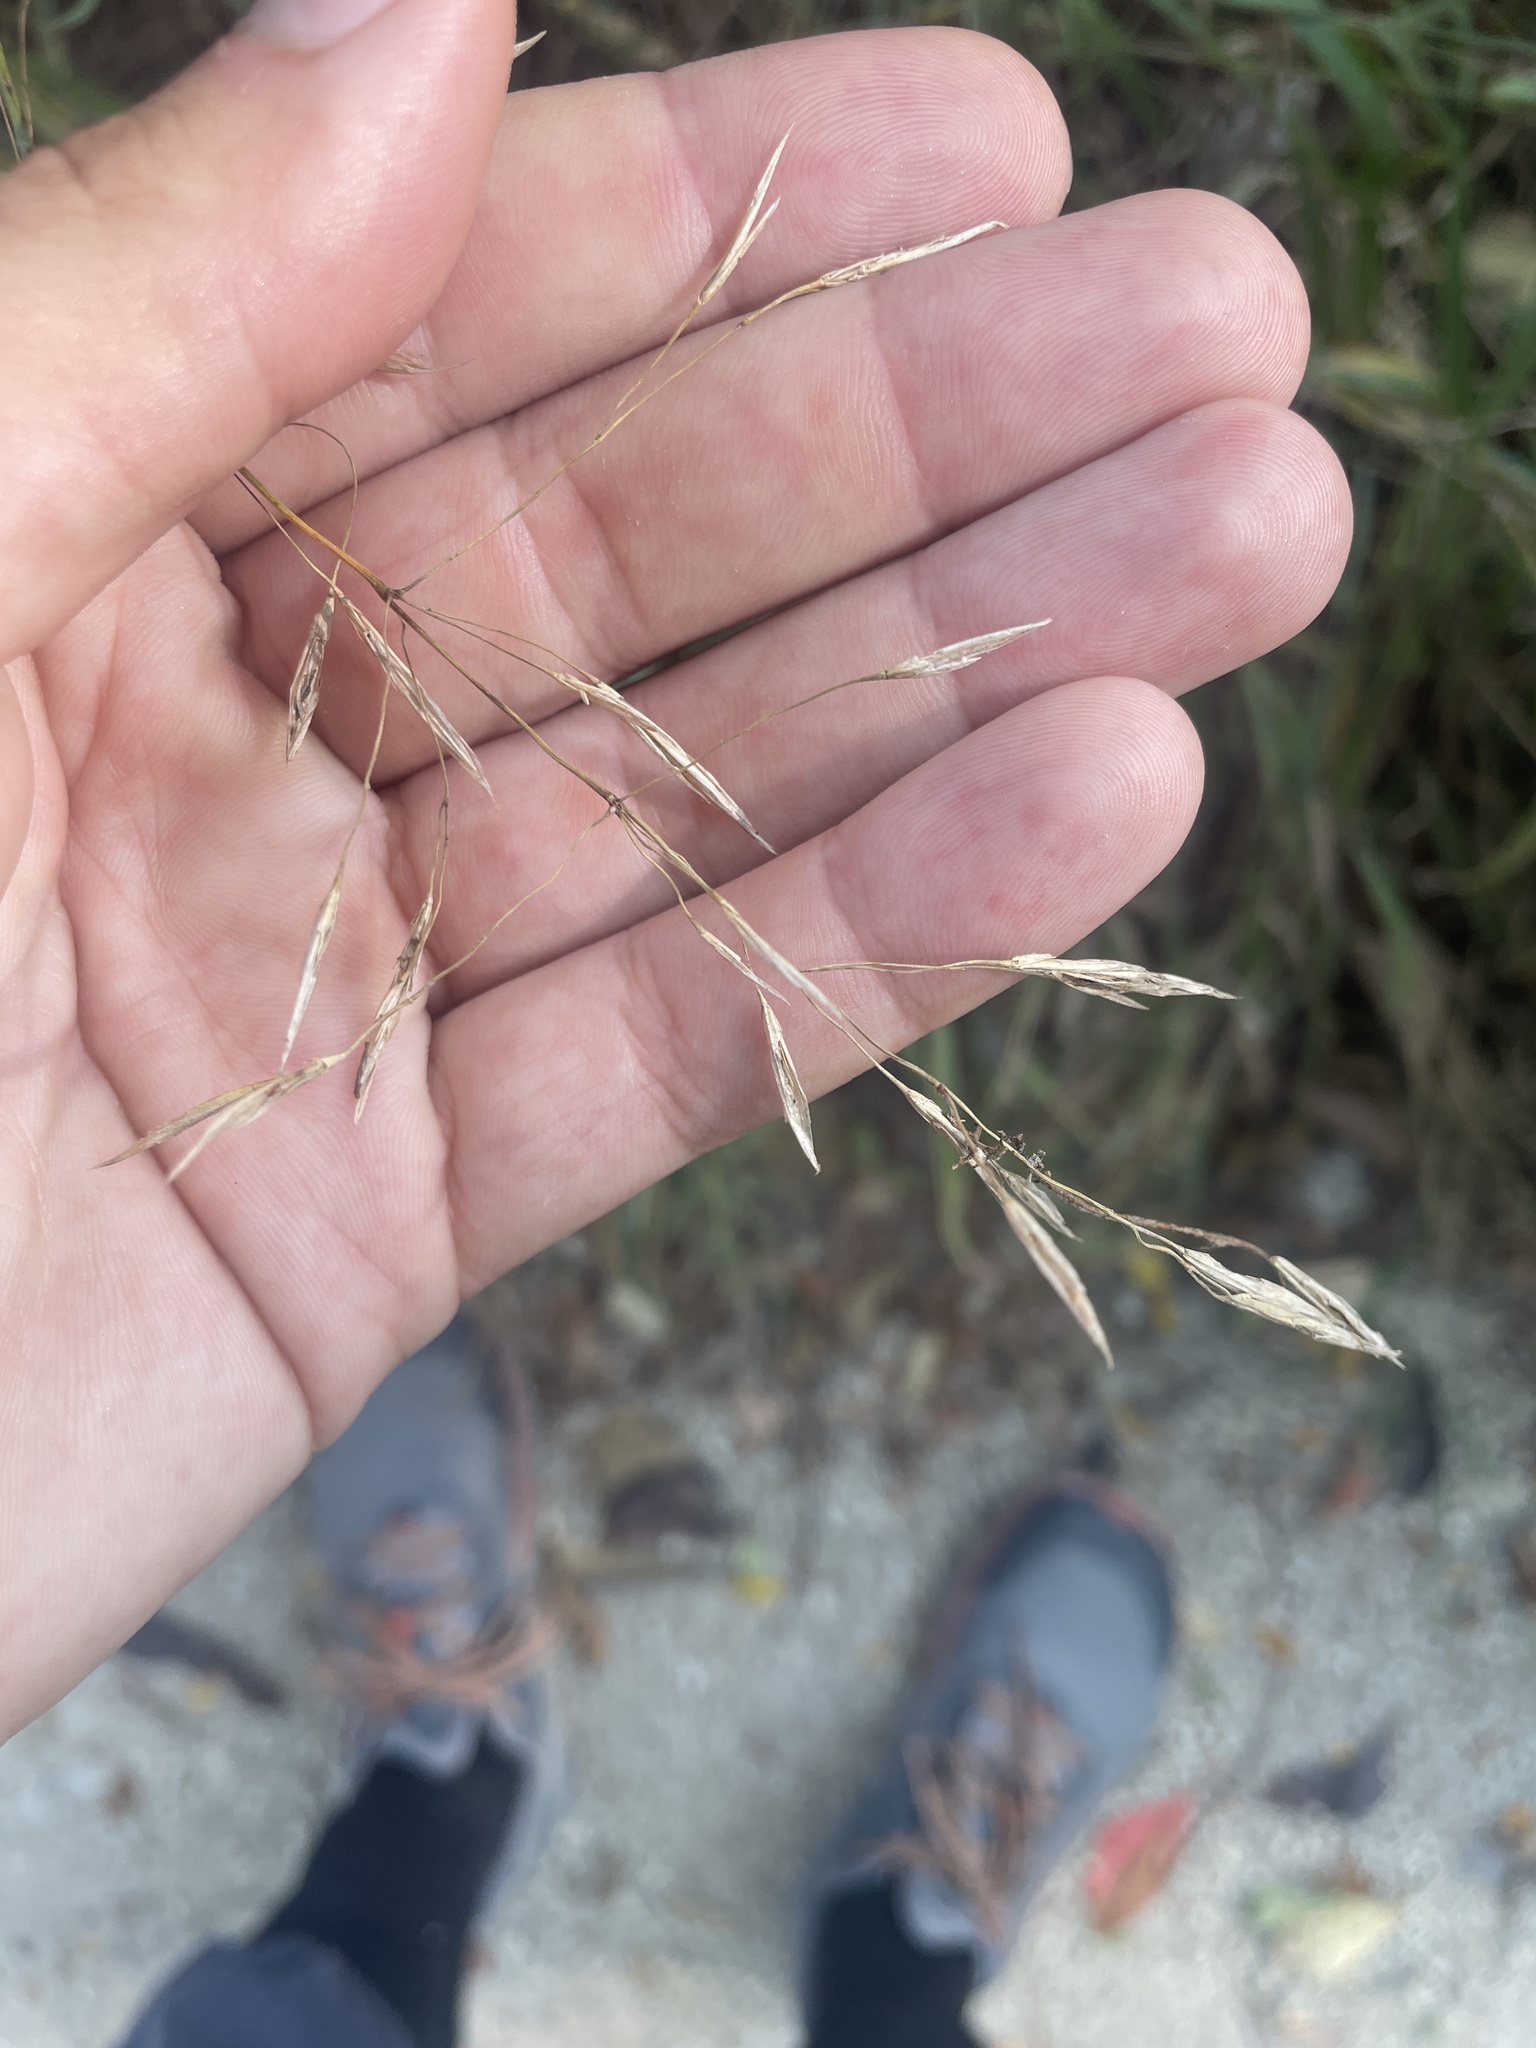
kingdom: Plantae
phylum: Tracheophyta
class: Liliopsida
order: Poales
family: Poaceae
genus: Bromus
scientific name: Bromus inermis
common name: Smooth brome
